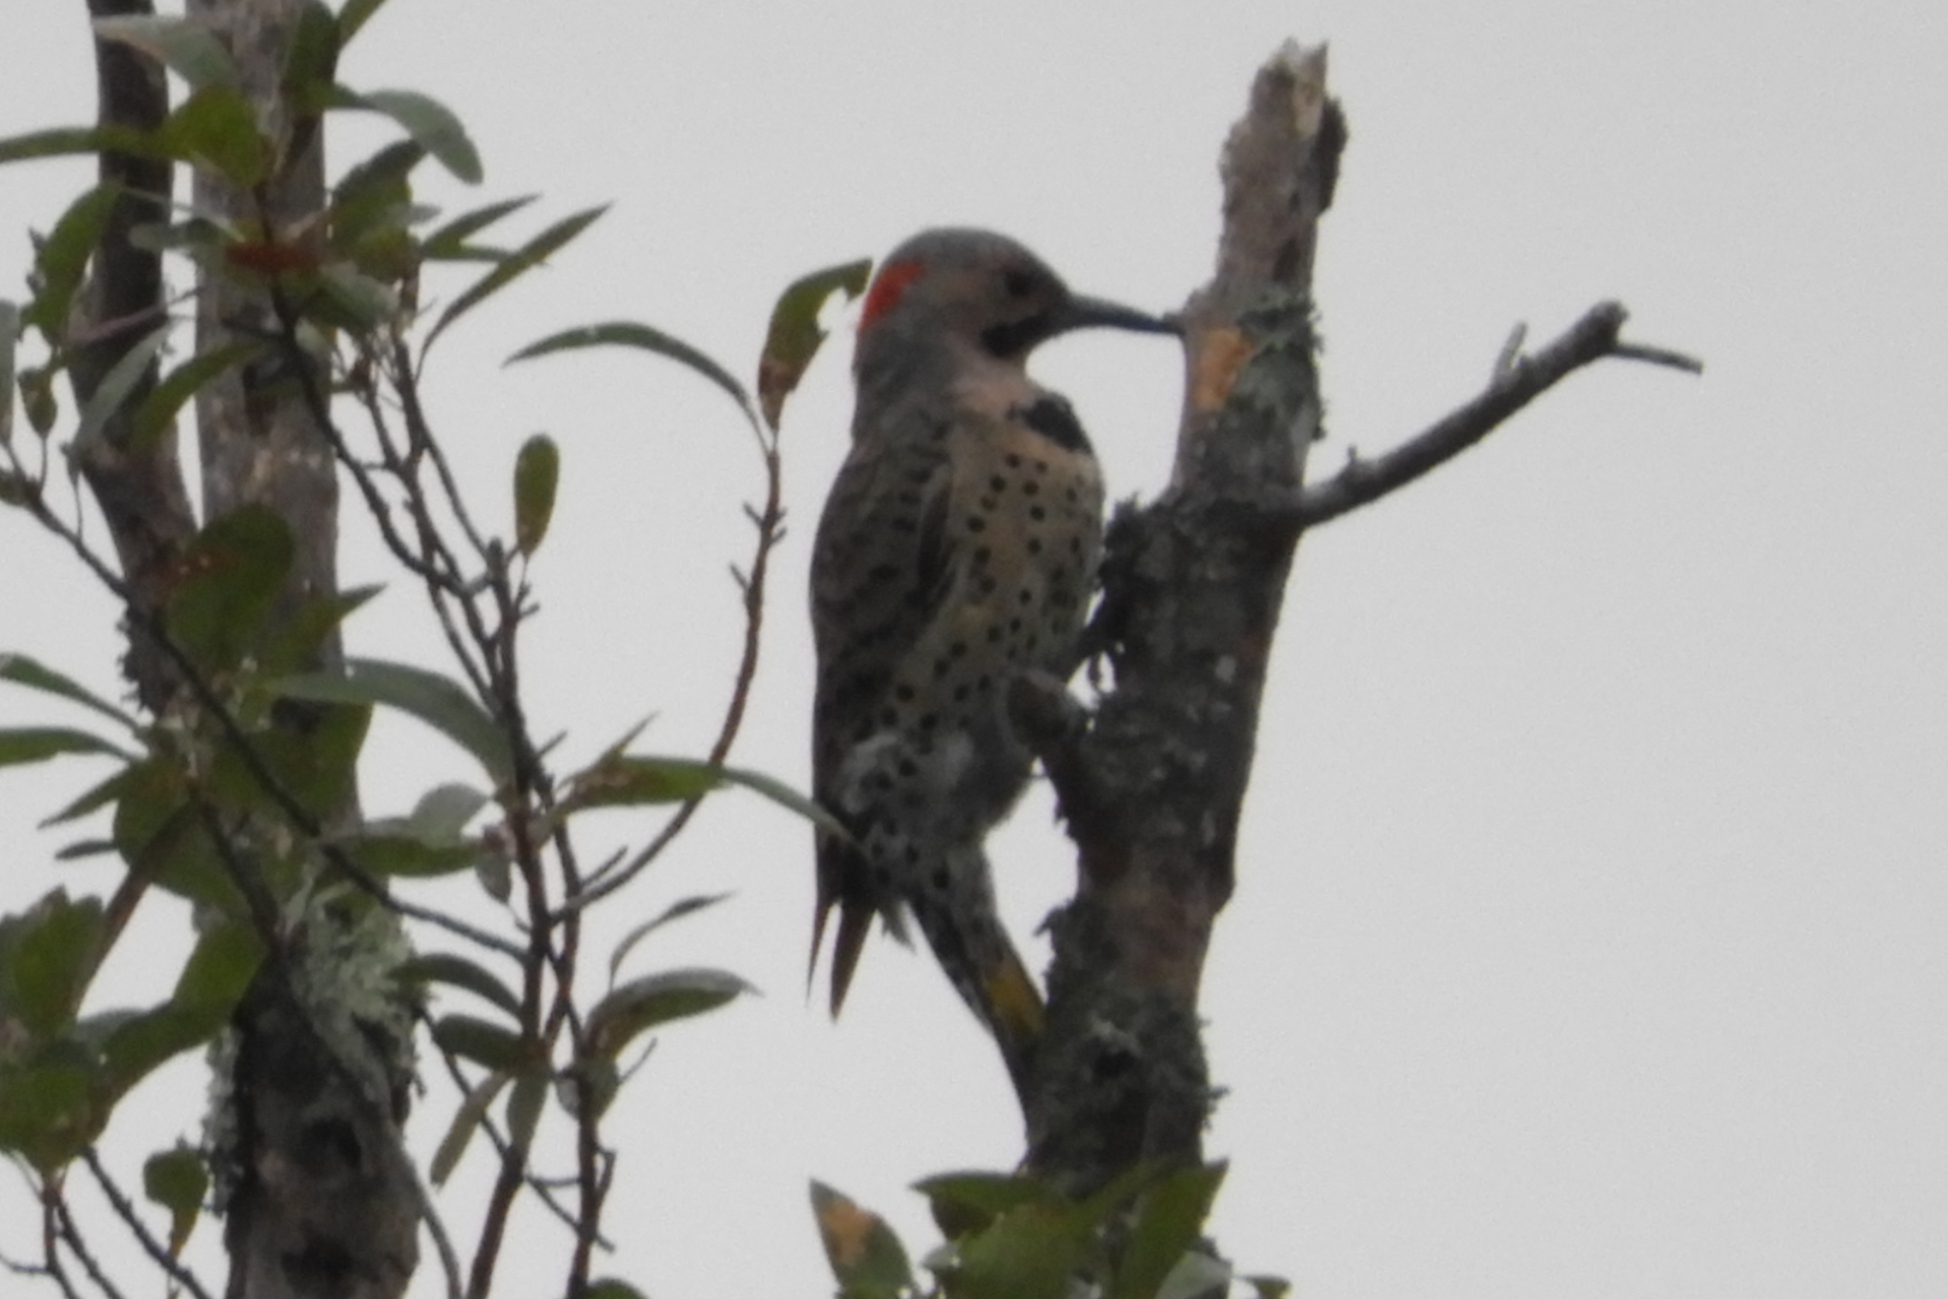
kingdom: Animalia
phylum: Chordata
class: Aves
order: Piciformes
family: Picidae
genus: Colaptes
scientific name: Colaptes auratus
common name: Northern flicker
